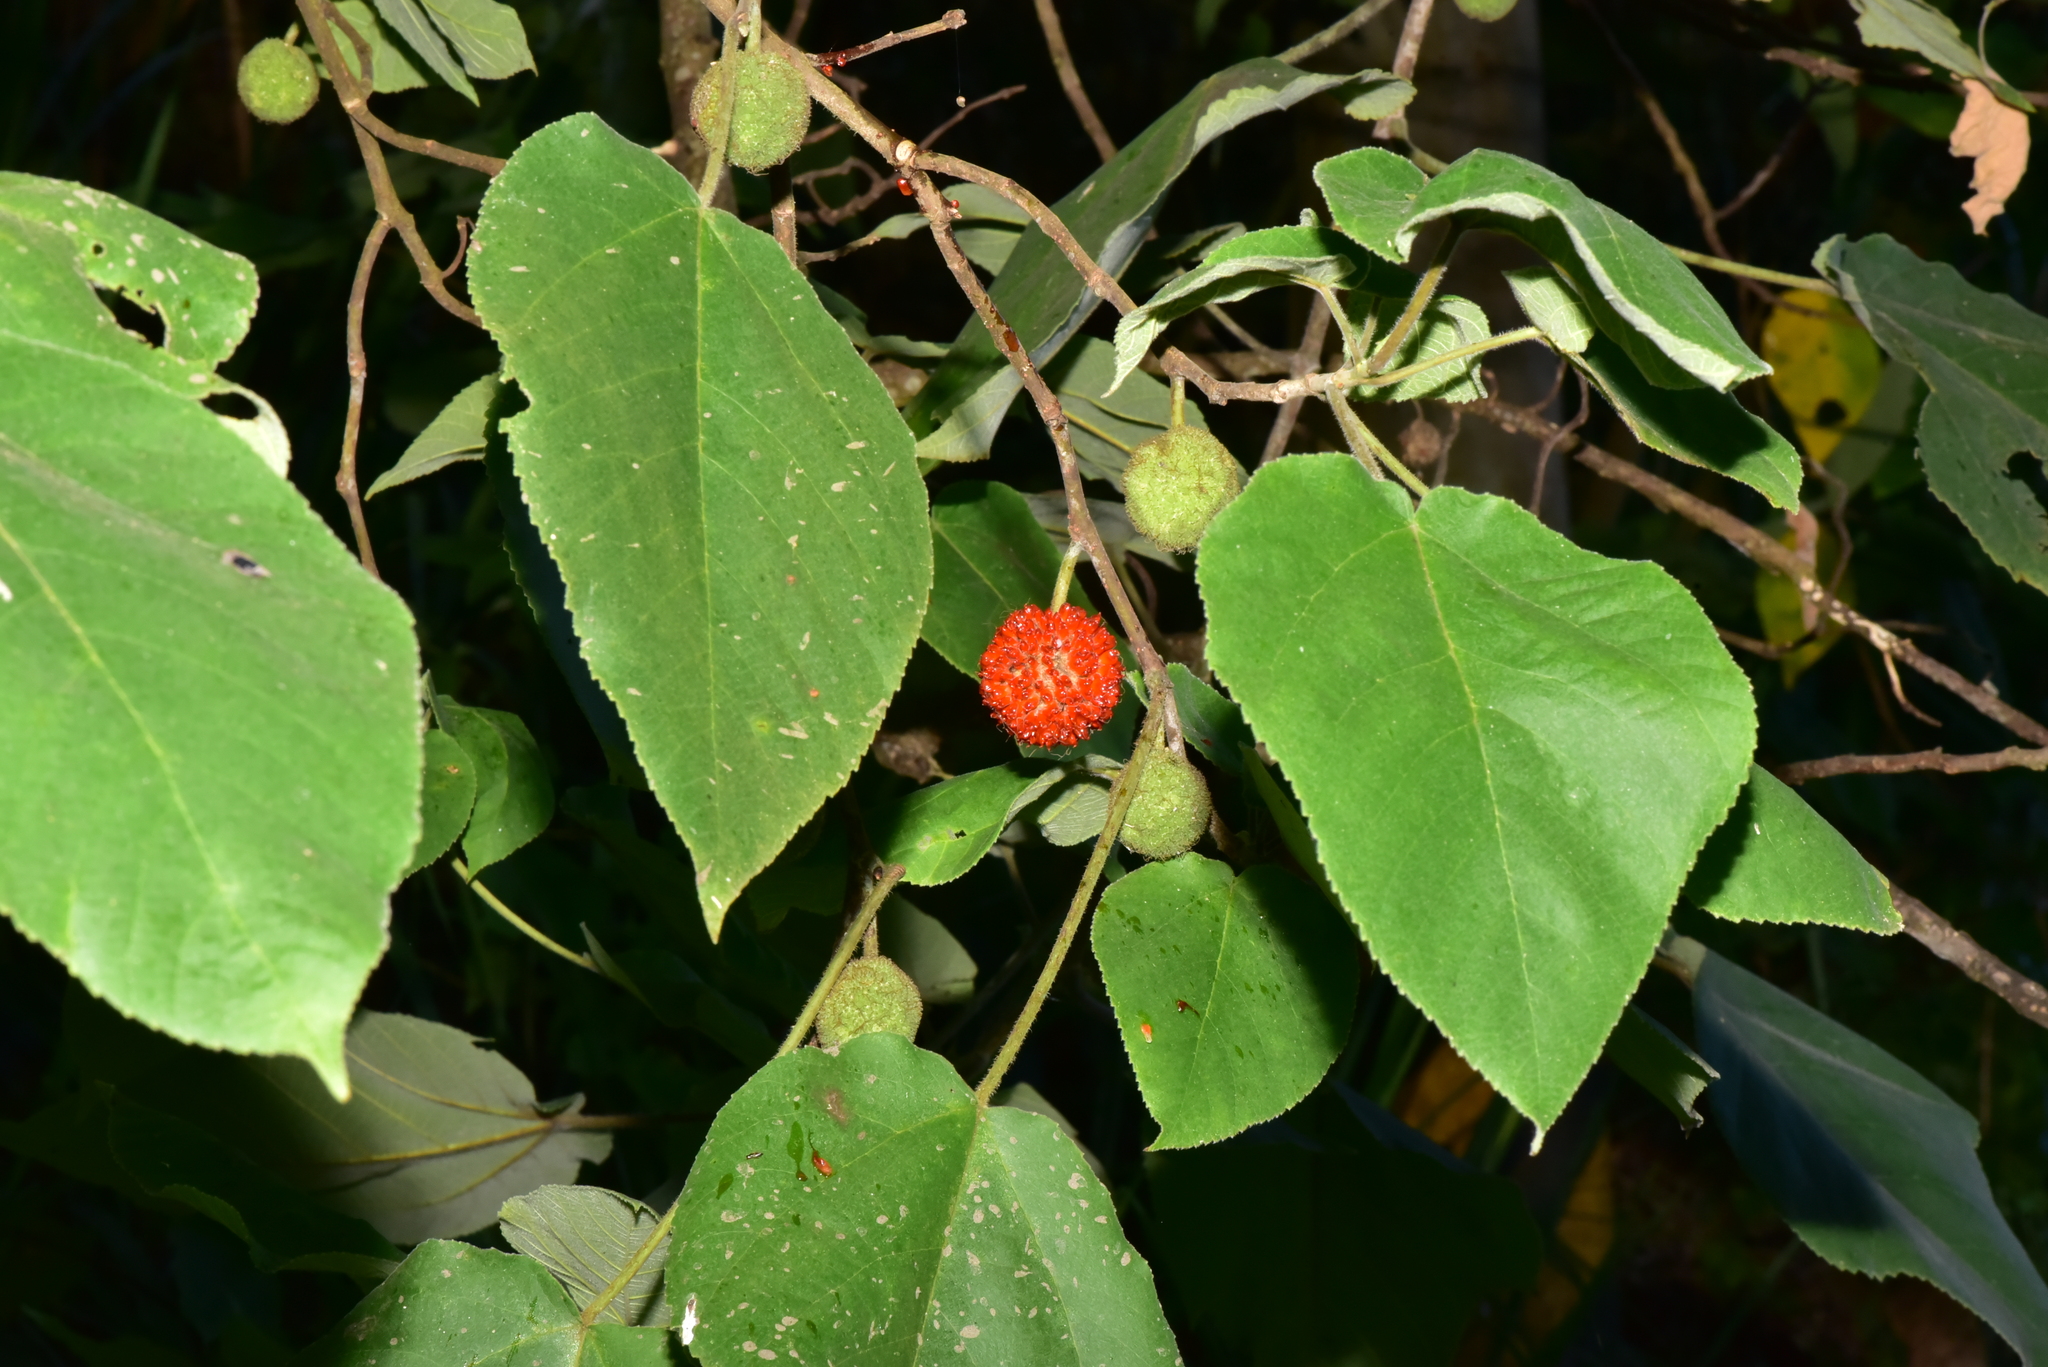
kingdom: Plantae
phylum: Tracheophyta
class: Magnoliopsida
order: Rosales
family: Moraceae
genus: Broussonetia
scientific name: Broussonetia papyrifera
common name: Paper mulberry
